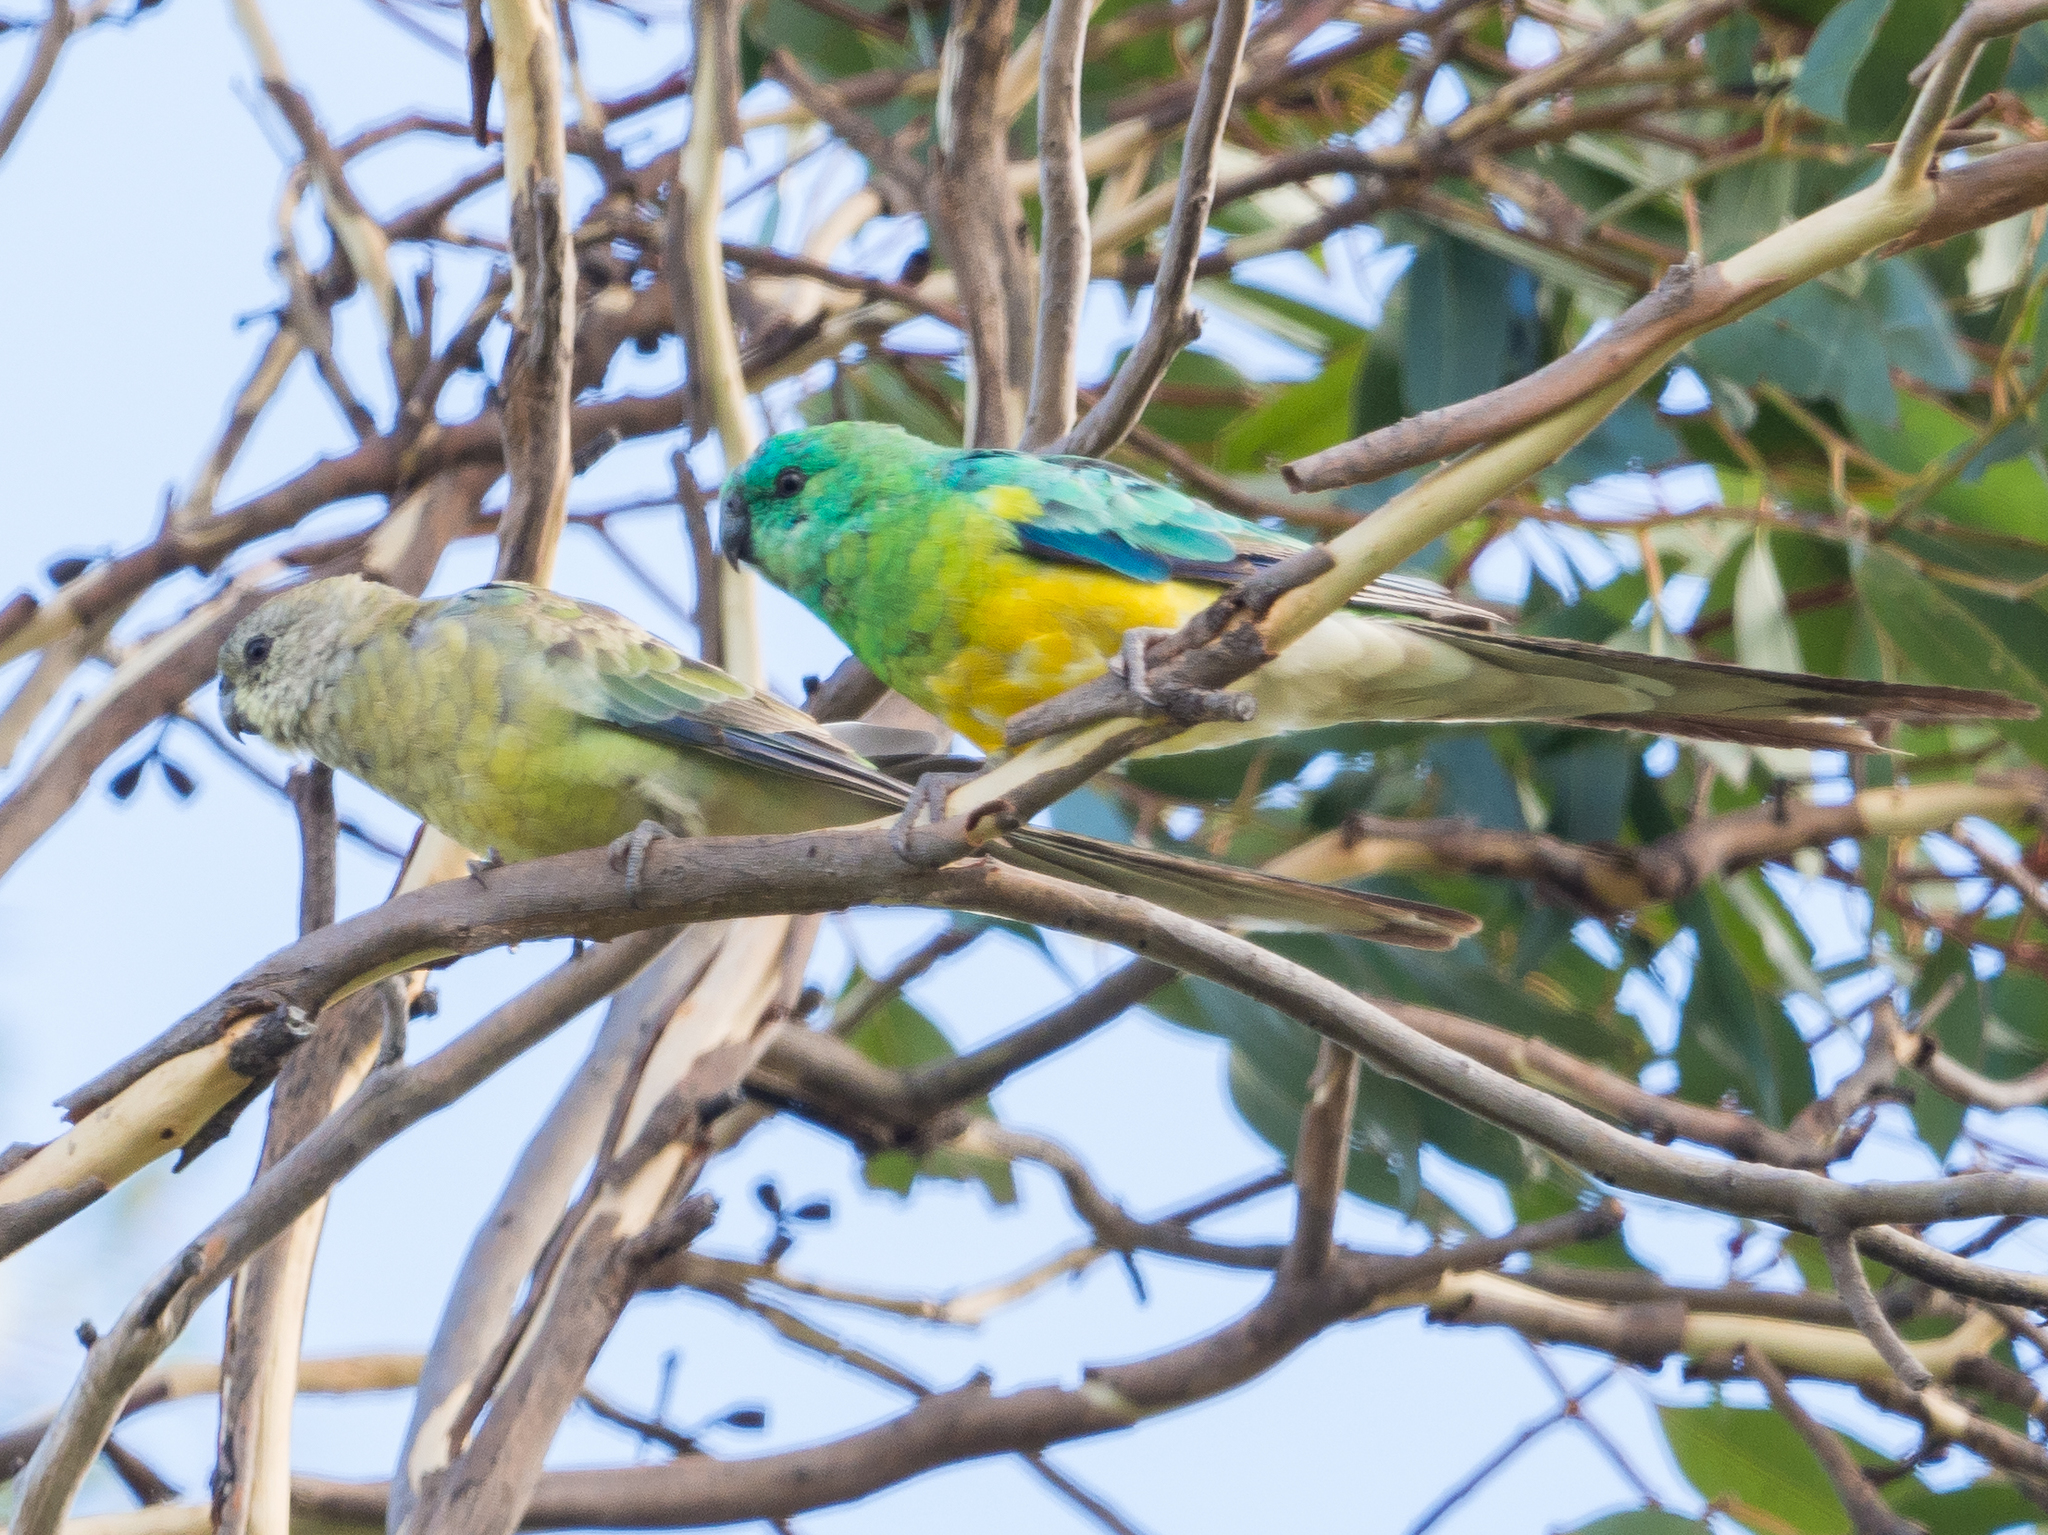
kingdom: Animalia
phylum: Chordata
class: Aves
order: Psittaciformes
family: Psittacidae
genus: Psephotus
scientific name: Psephotus haematonotus
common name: Red-rumped parrot
